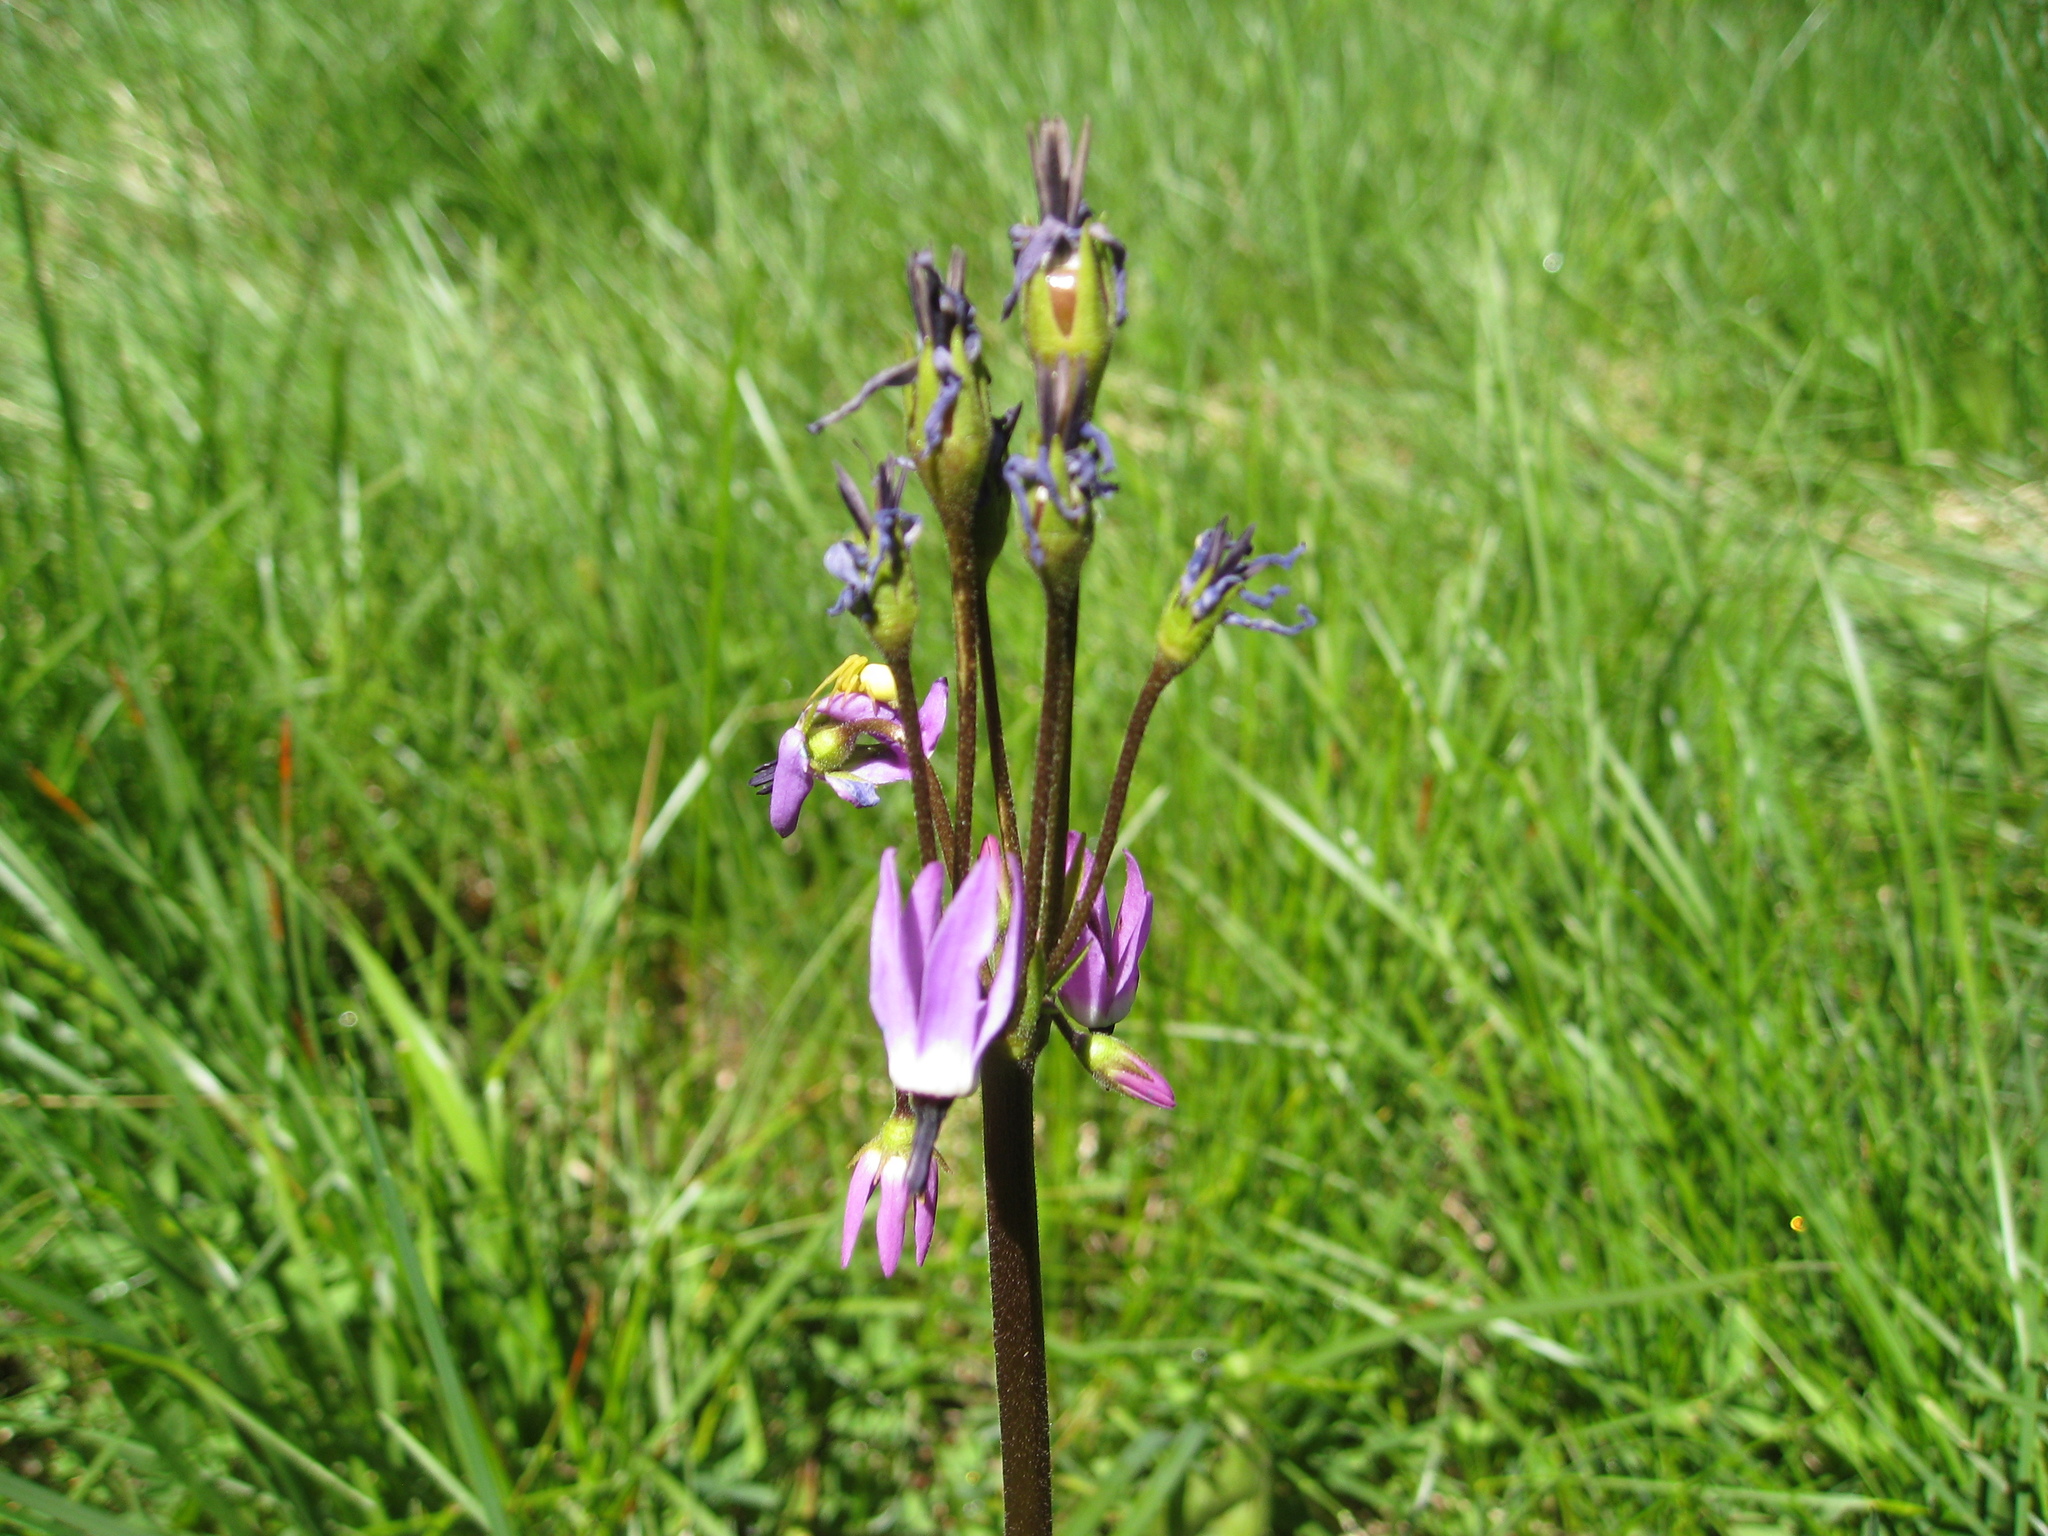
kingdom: Plantae
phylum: Tracheophyta
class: Magnoliopsida
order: Ericales
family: Primulaceae
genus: Dodecatheon
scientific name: Dodecatheon jeffreyanum
